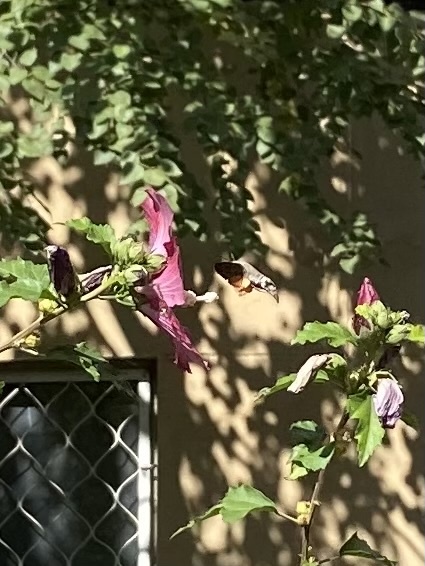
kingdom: Animalia
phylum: Arthropoda
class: Insecta
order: Lepidoptera
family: Sphingidae
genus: Macroglossum
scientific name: Macroglossum stellatarum
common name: Humming-bird hawk-moth
